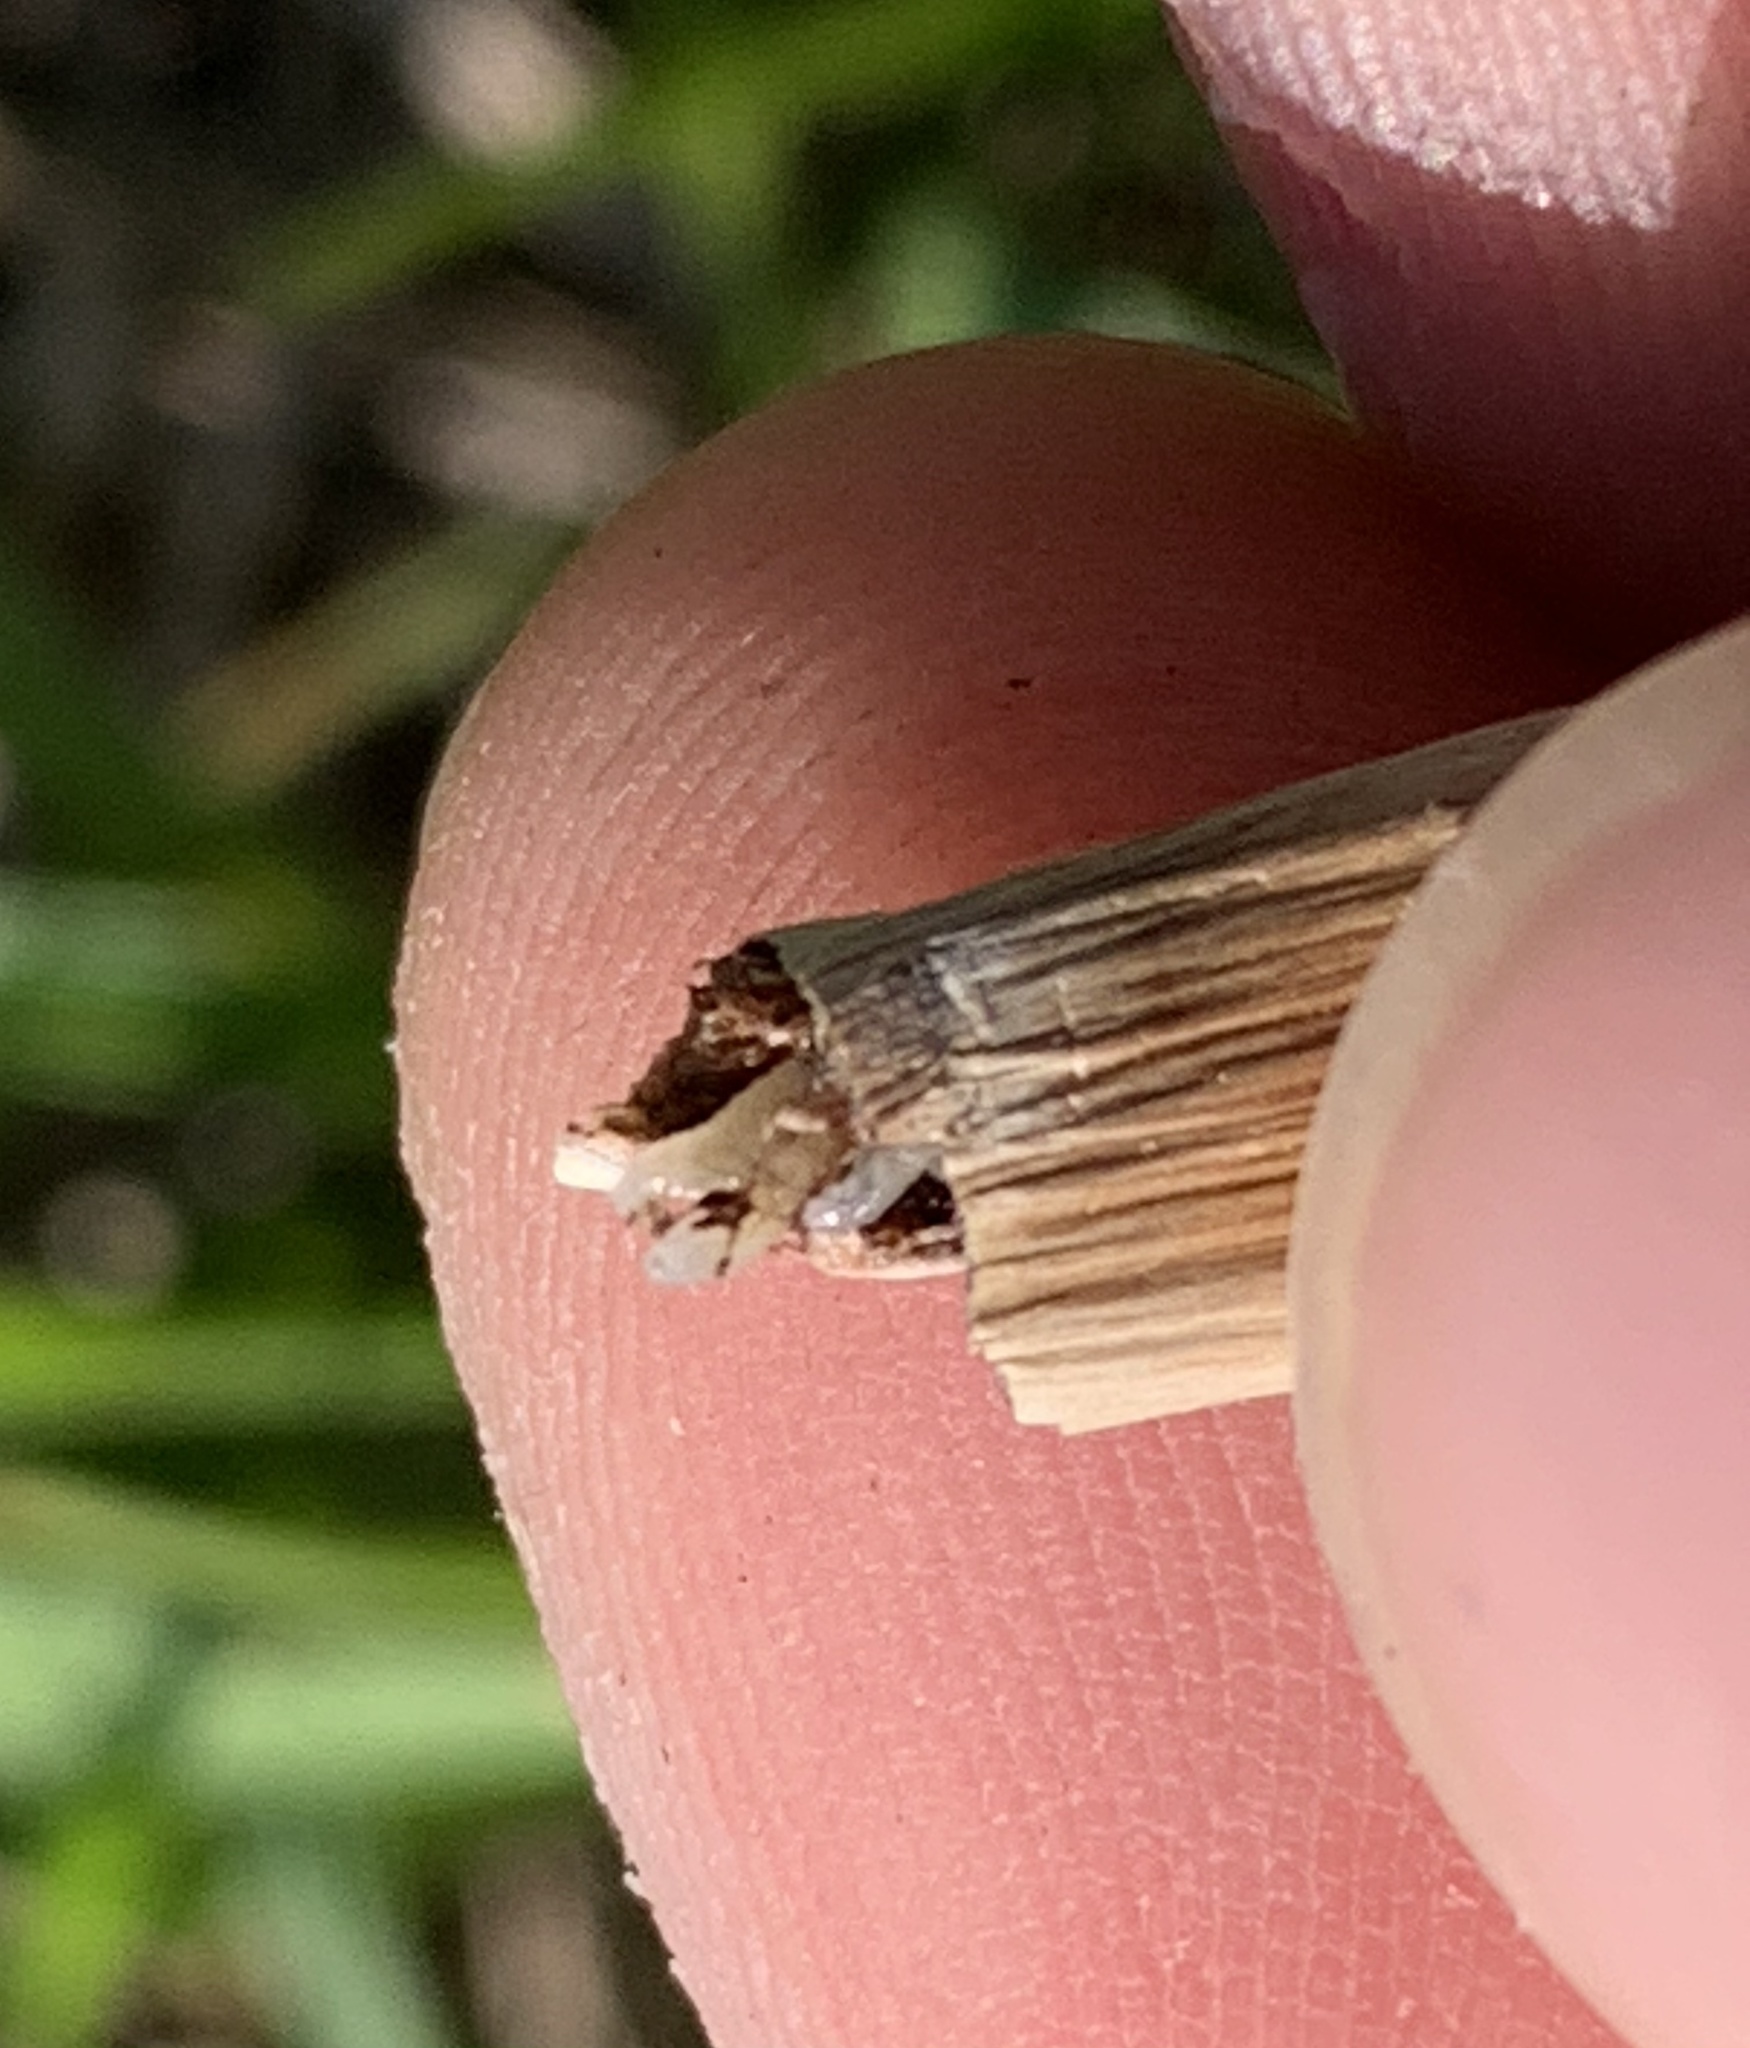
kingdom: Fungi
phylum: Basidiomycota
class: Agaricomycetes
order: Agaricales
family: Agaricaceae
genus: Chlorophyllum
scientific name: Chlorophyllum molybdites
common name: False parasol
